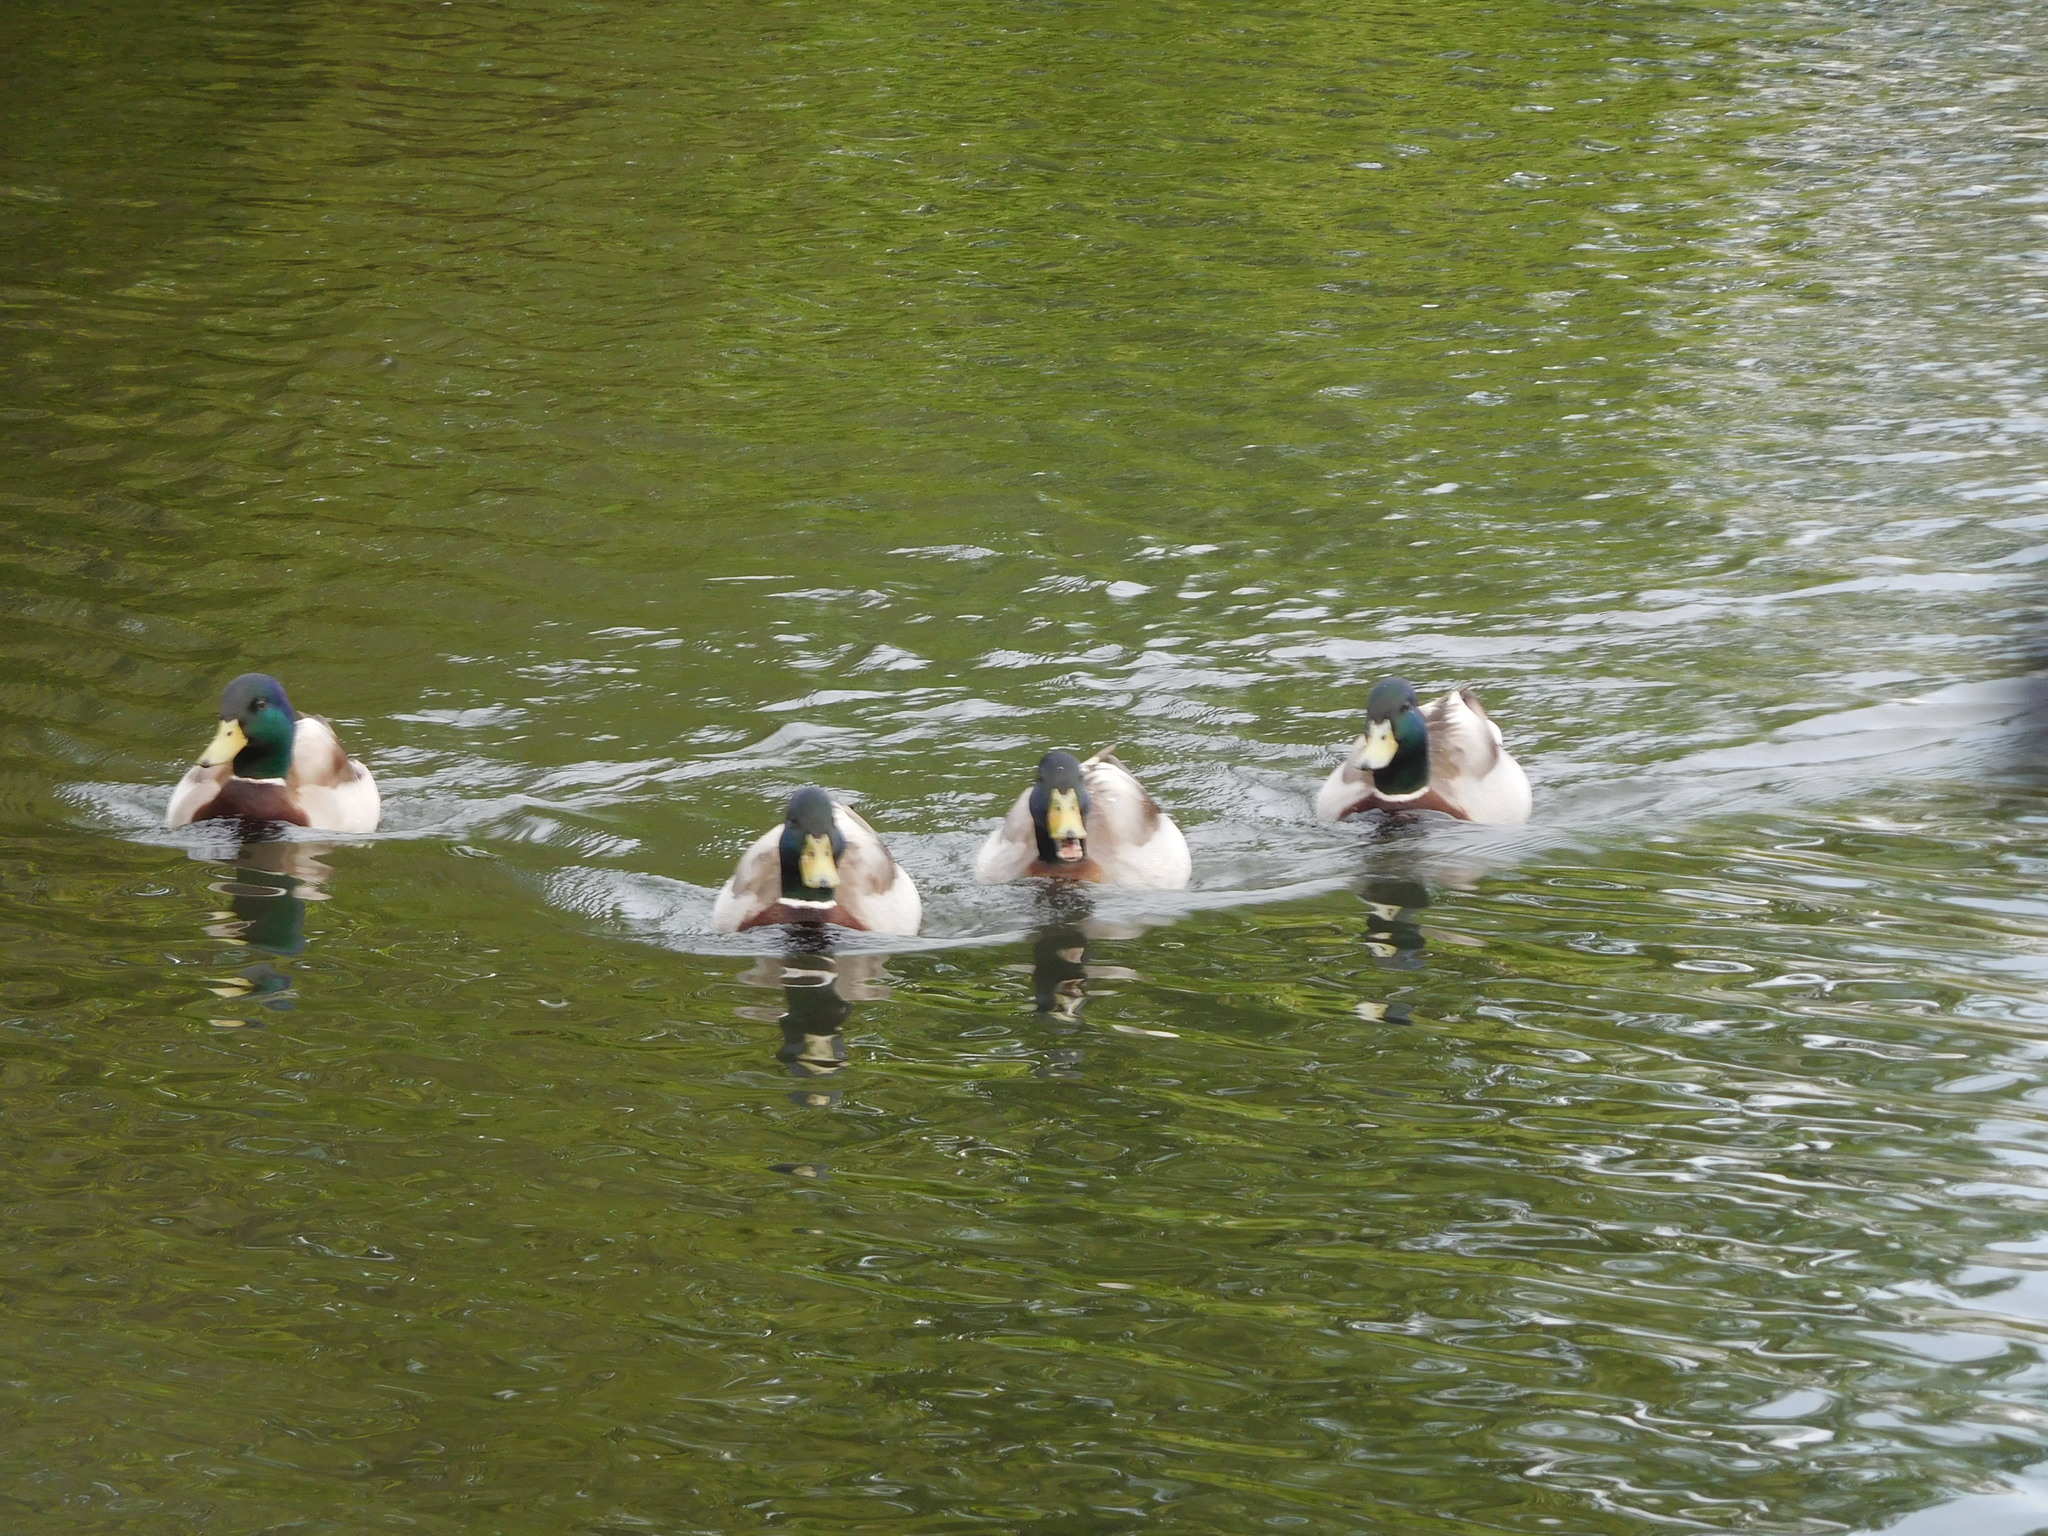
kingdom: Animalia
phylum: Chordata
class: Aves
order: Anseriformes
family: Anatidae
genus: Anas
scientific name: Anas platyrhynchos
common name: Mallard
